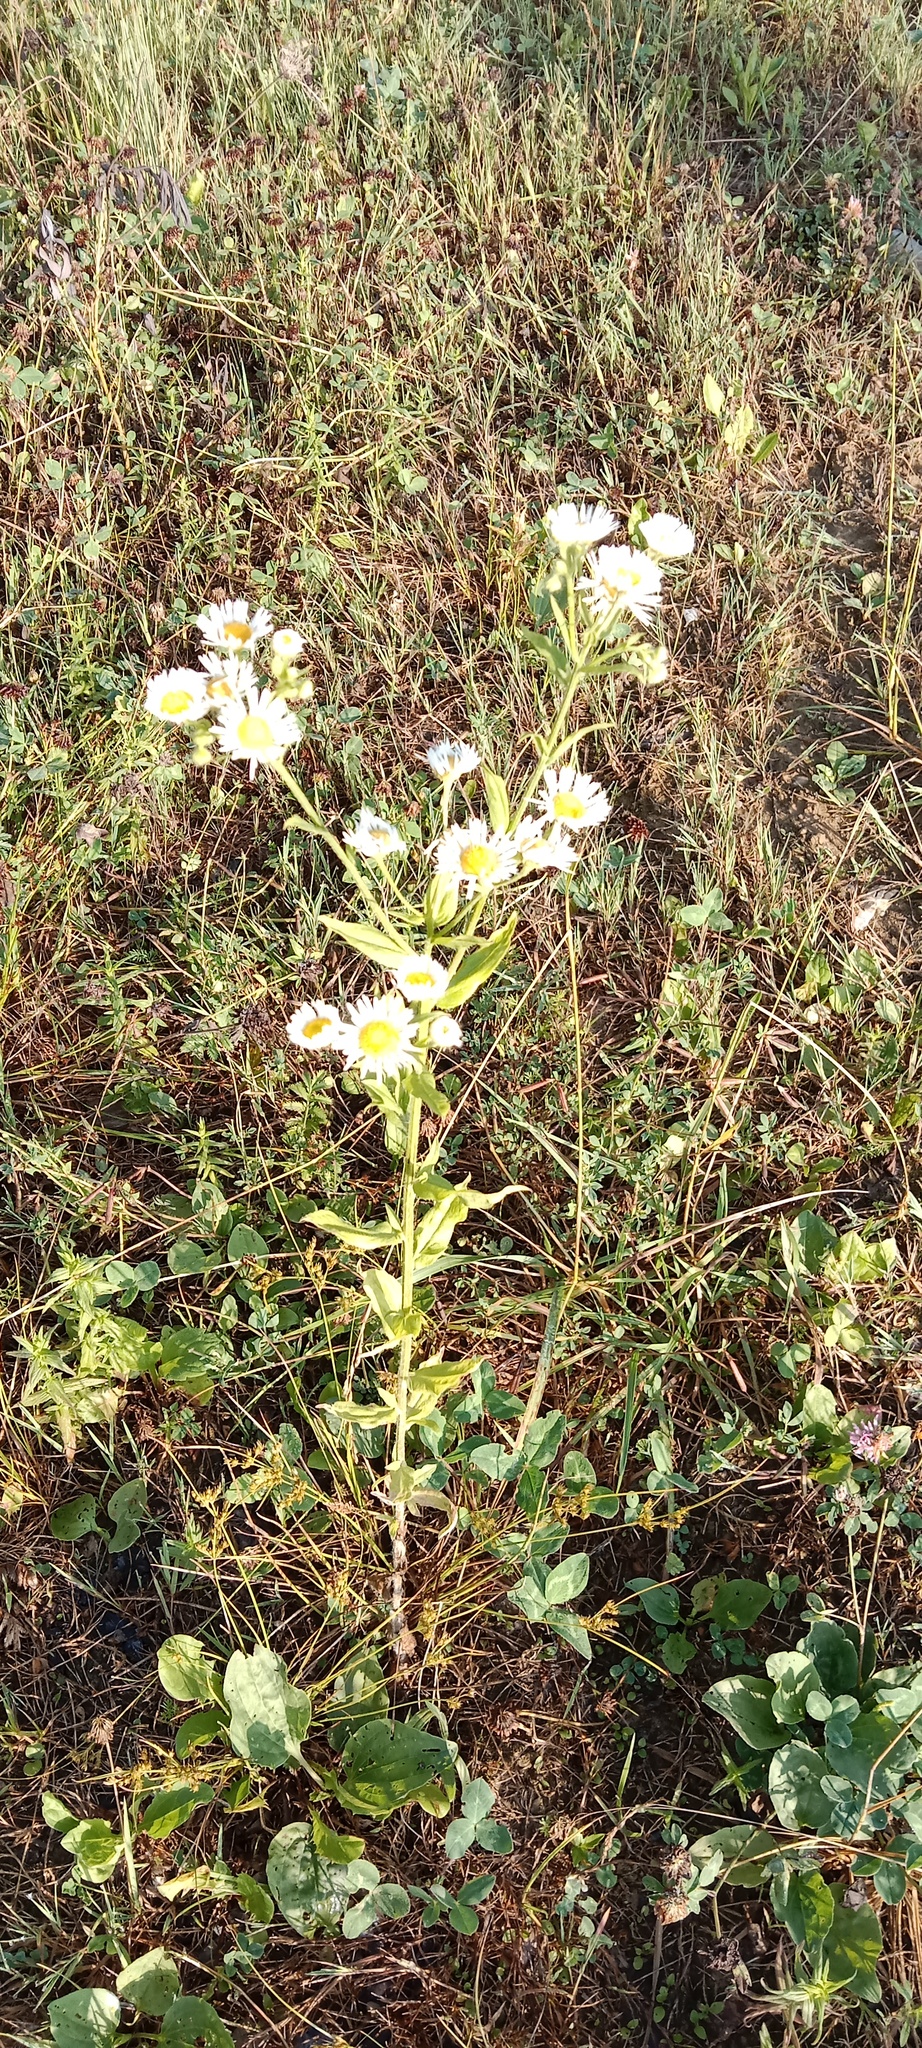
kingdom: Plantae
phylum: Tracheophyta
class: Magnoliopsida
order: Asterales
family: Asteraceae
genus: Erigeron
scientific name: Erigeron annuus
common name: Tall fleabane
